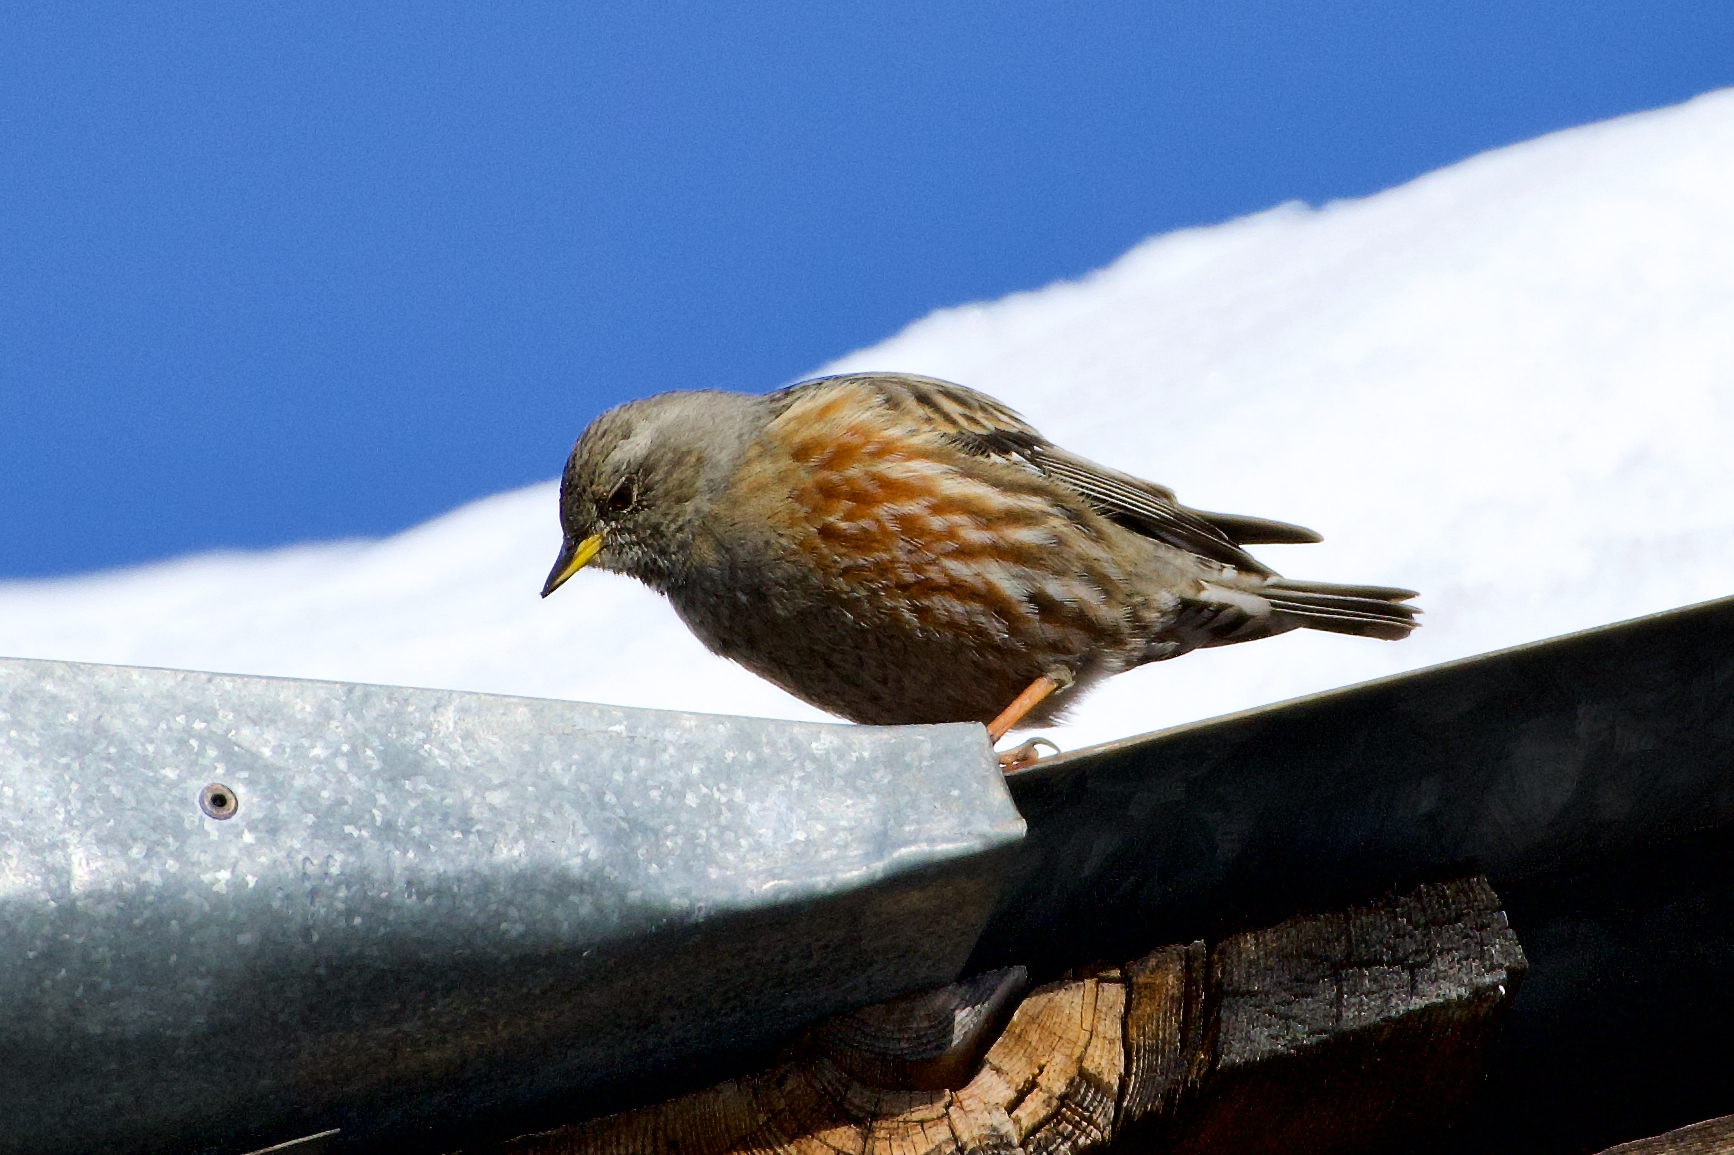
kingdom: Animalia
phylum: Chordata
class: Aves
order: Passeriformes
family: Prunellidae
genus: Prunella
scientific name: Prunella collaris
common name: Alpine accentor
